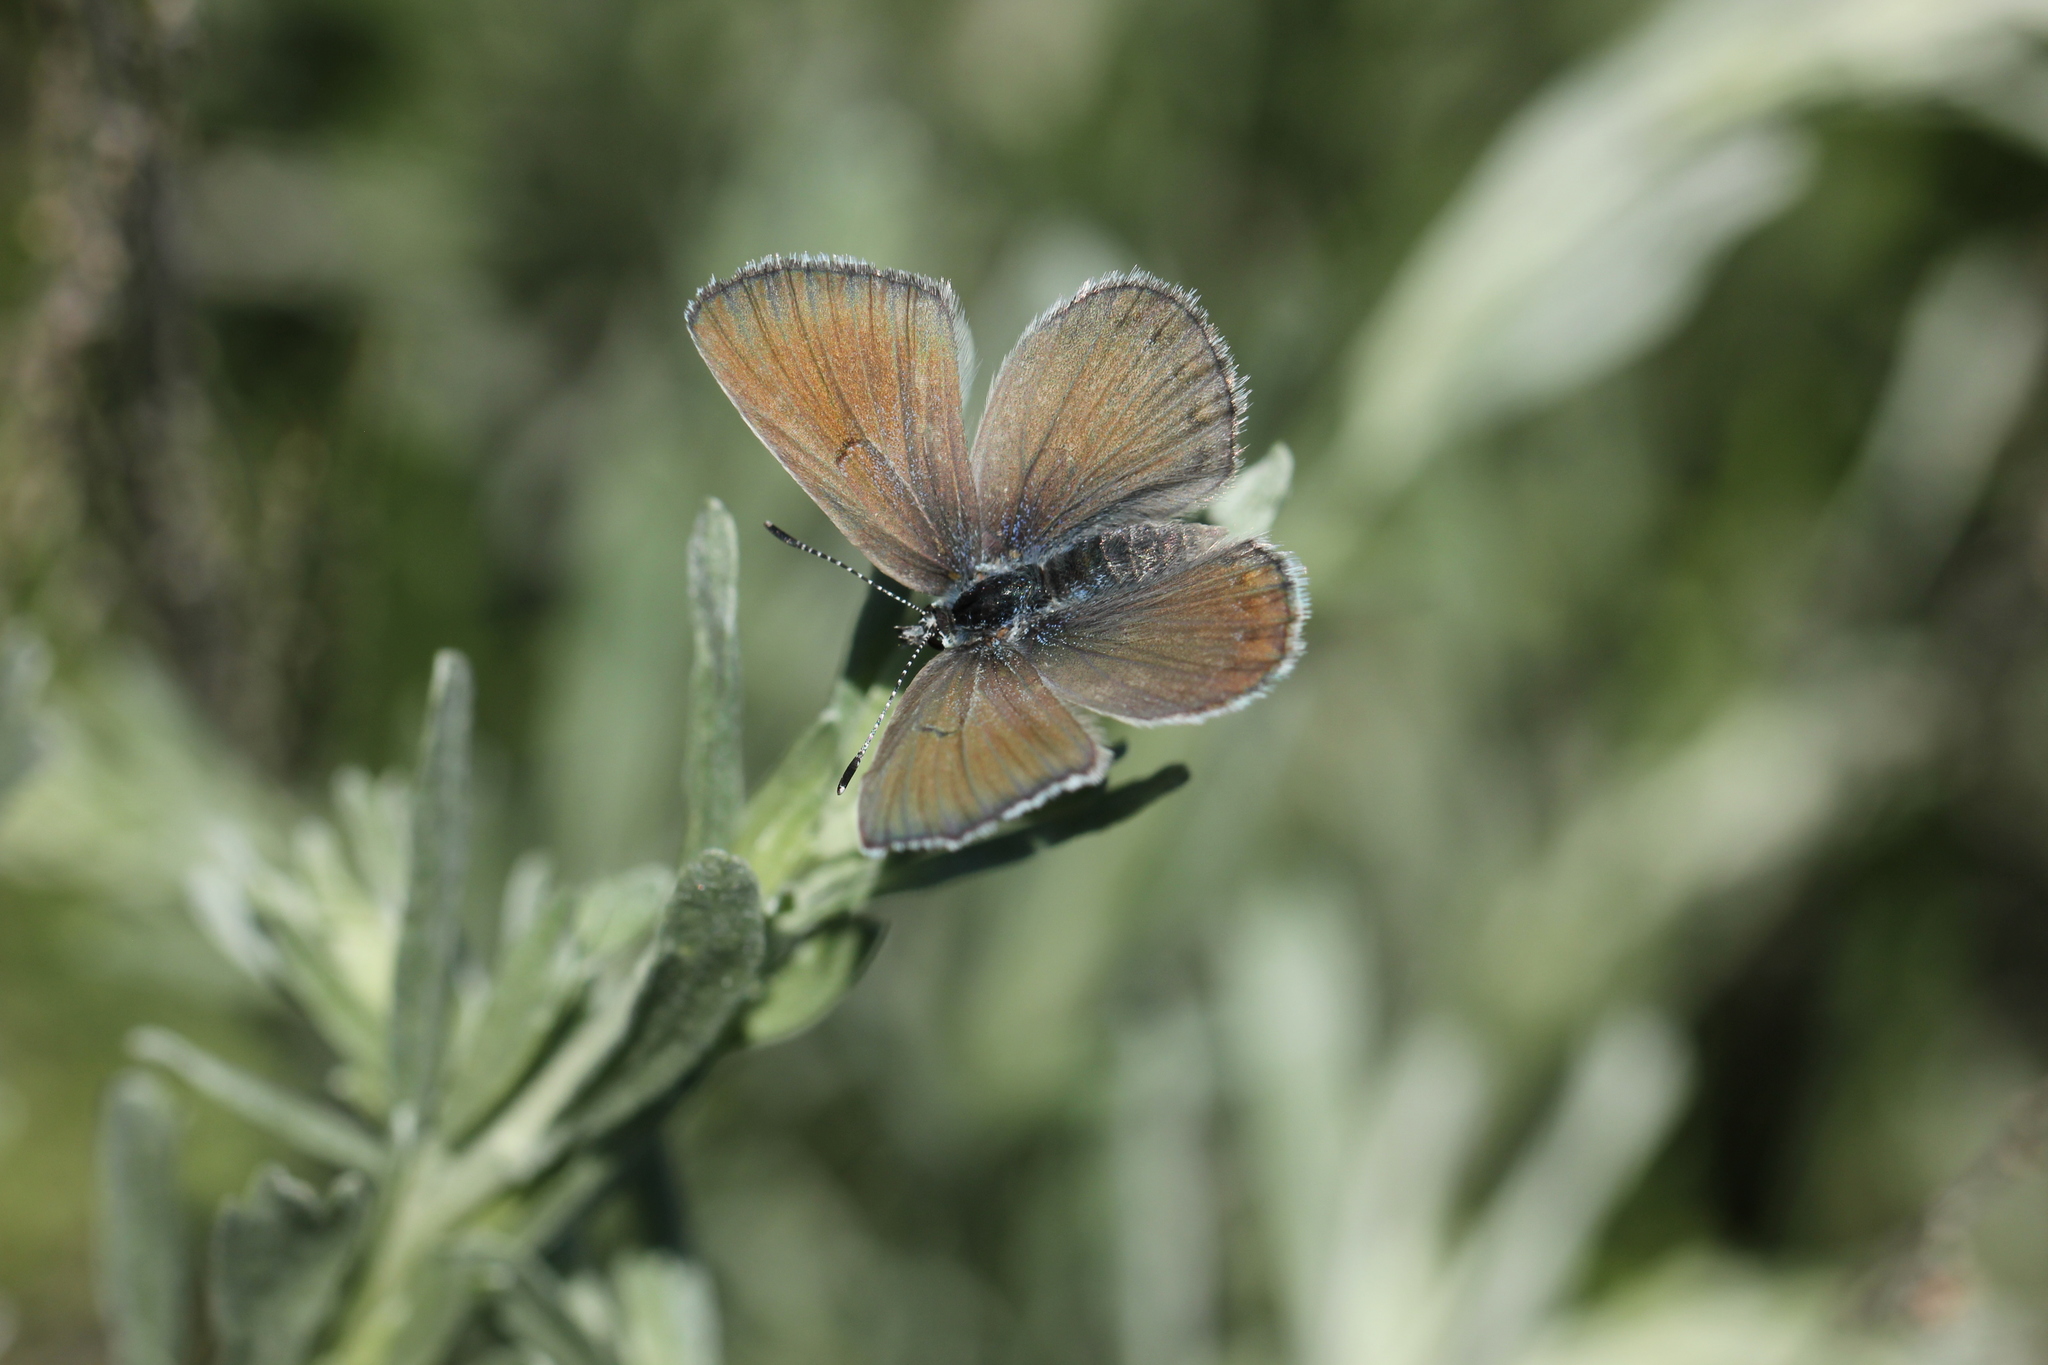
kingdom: Animalia
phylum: Arthropoda
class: Insecta
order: Lepidoptera
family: Lycaenidae
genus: Icaricia
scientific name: Icaricia icarioides
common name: Boisduval's blue
